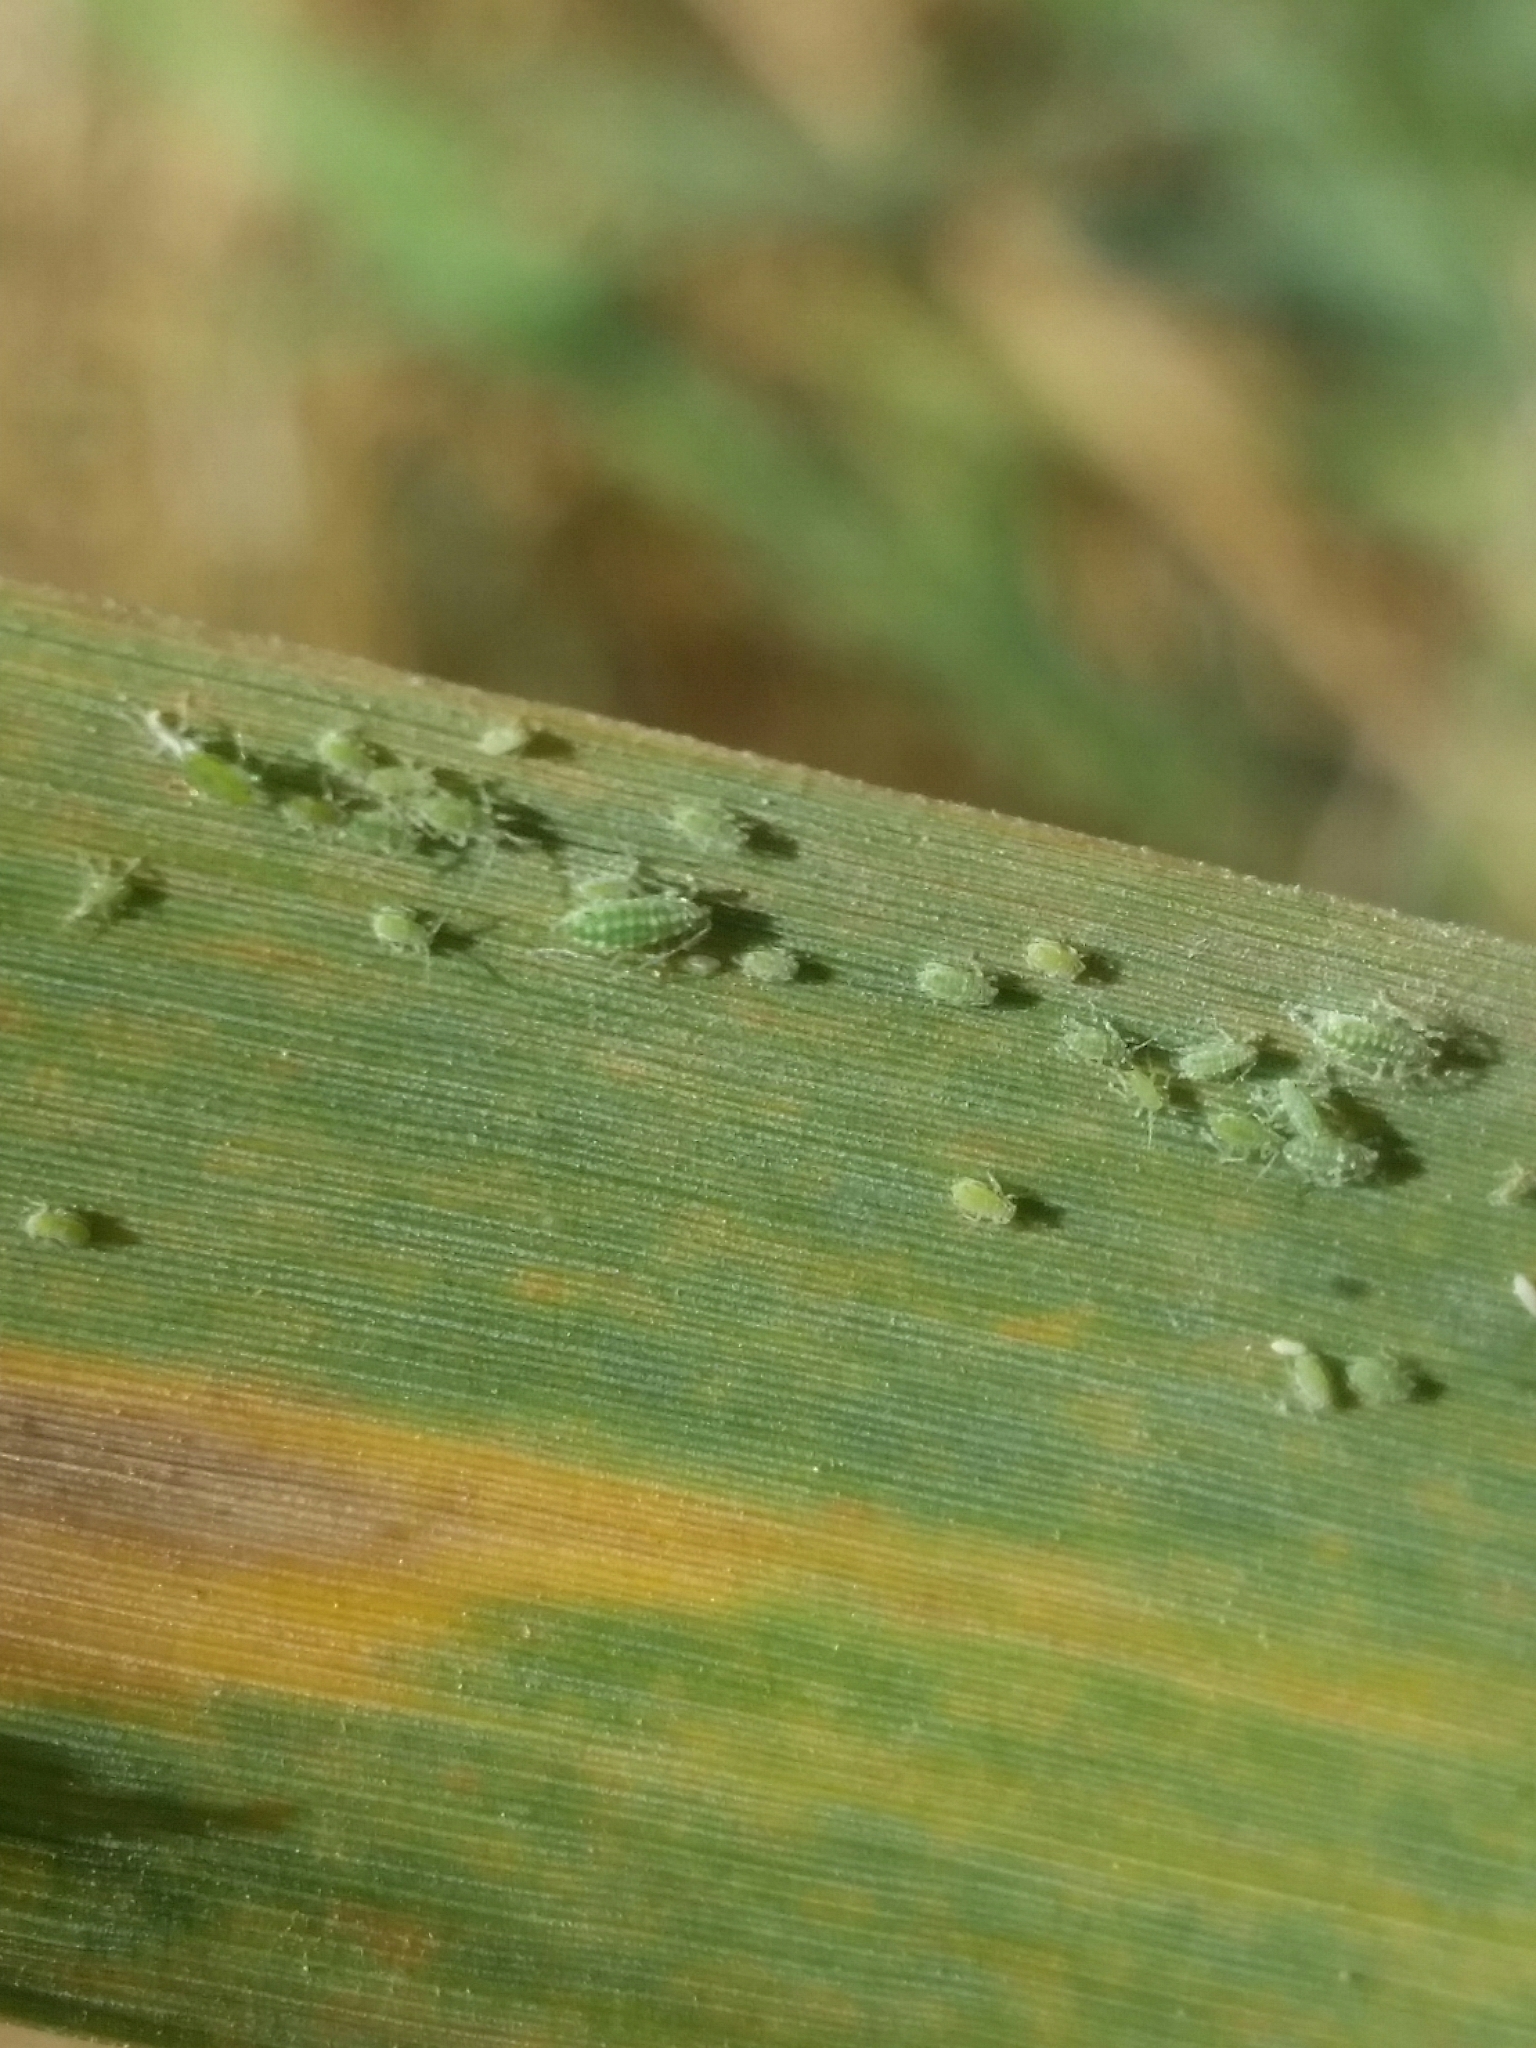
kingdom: Animalia
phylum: Arthropoda
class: Insecta
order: Hemiptera
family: Aphididae
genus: Hyalopterus
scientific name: Hyalopterus pruni
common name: Mealy plum aphid
